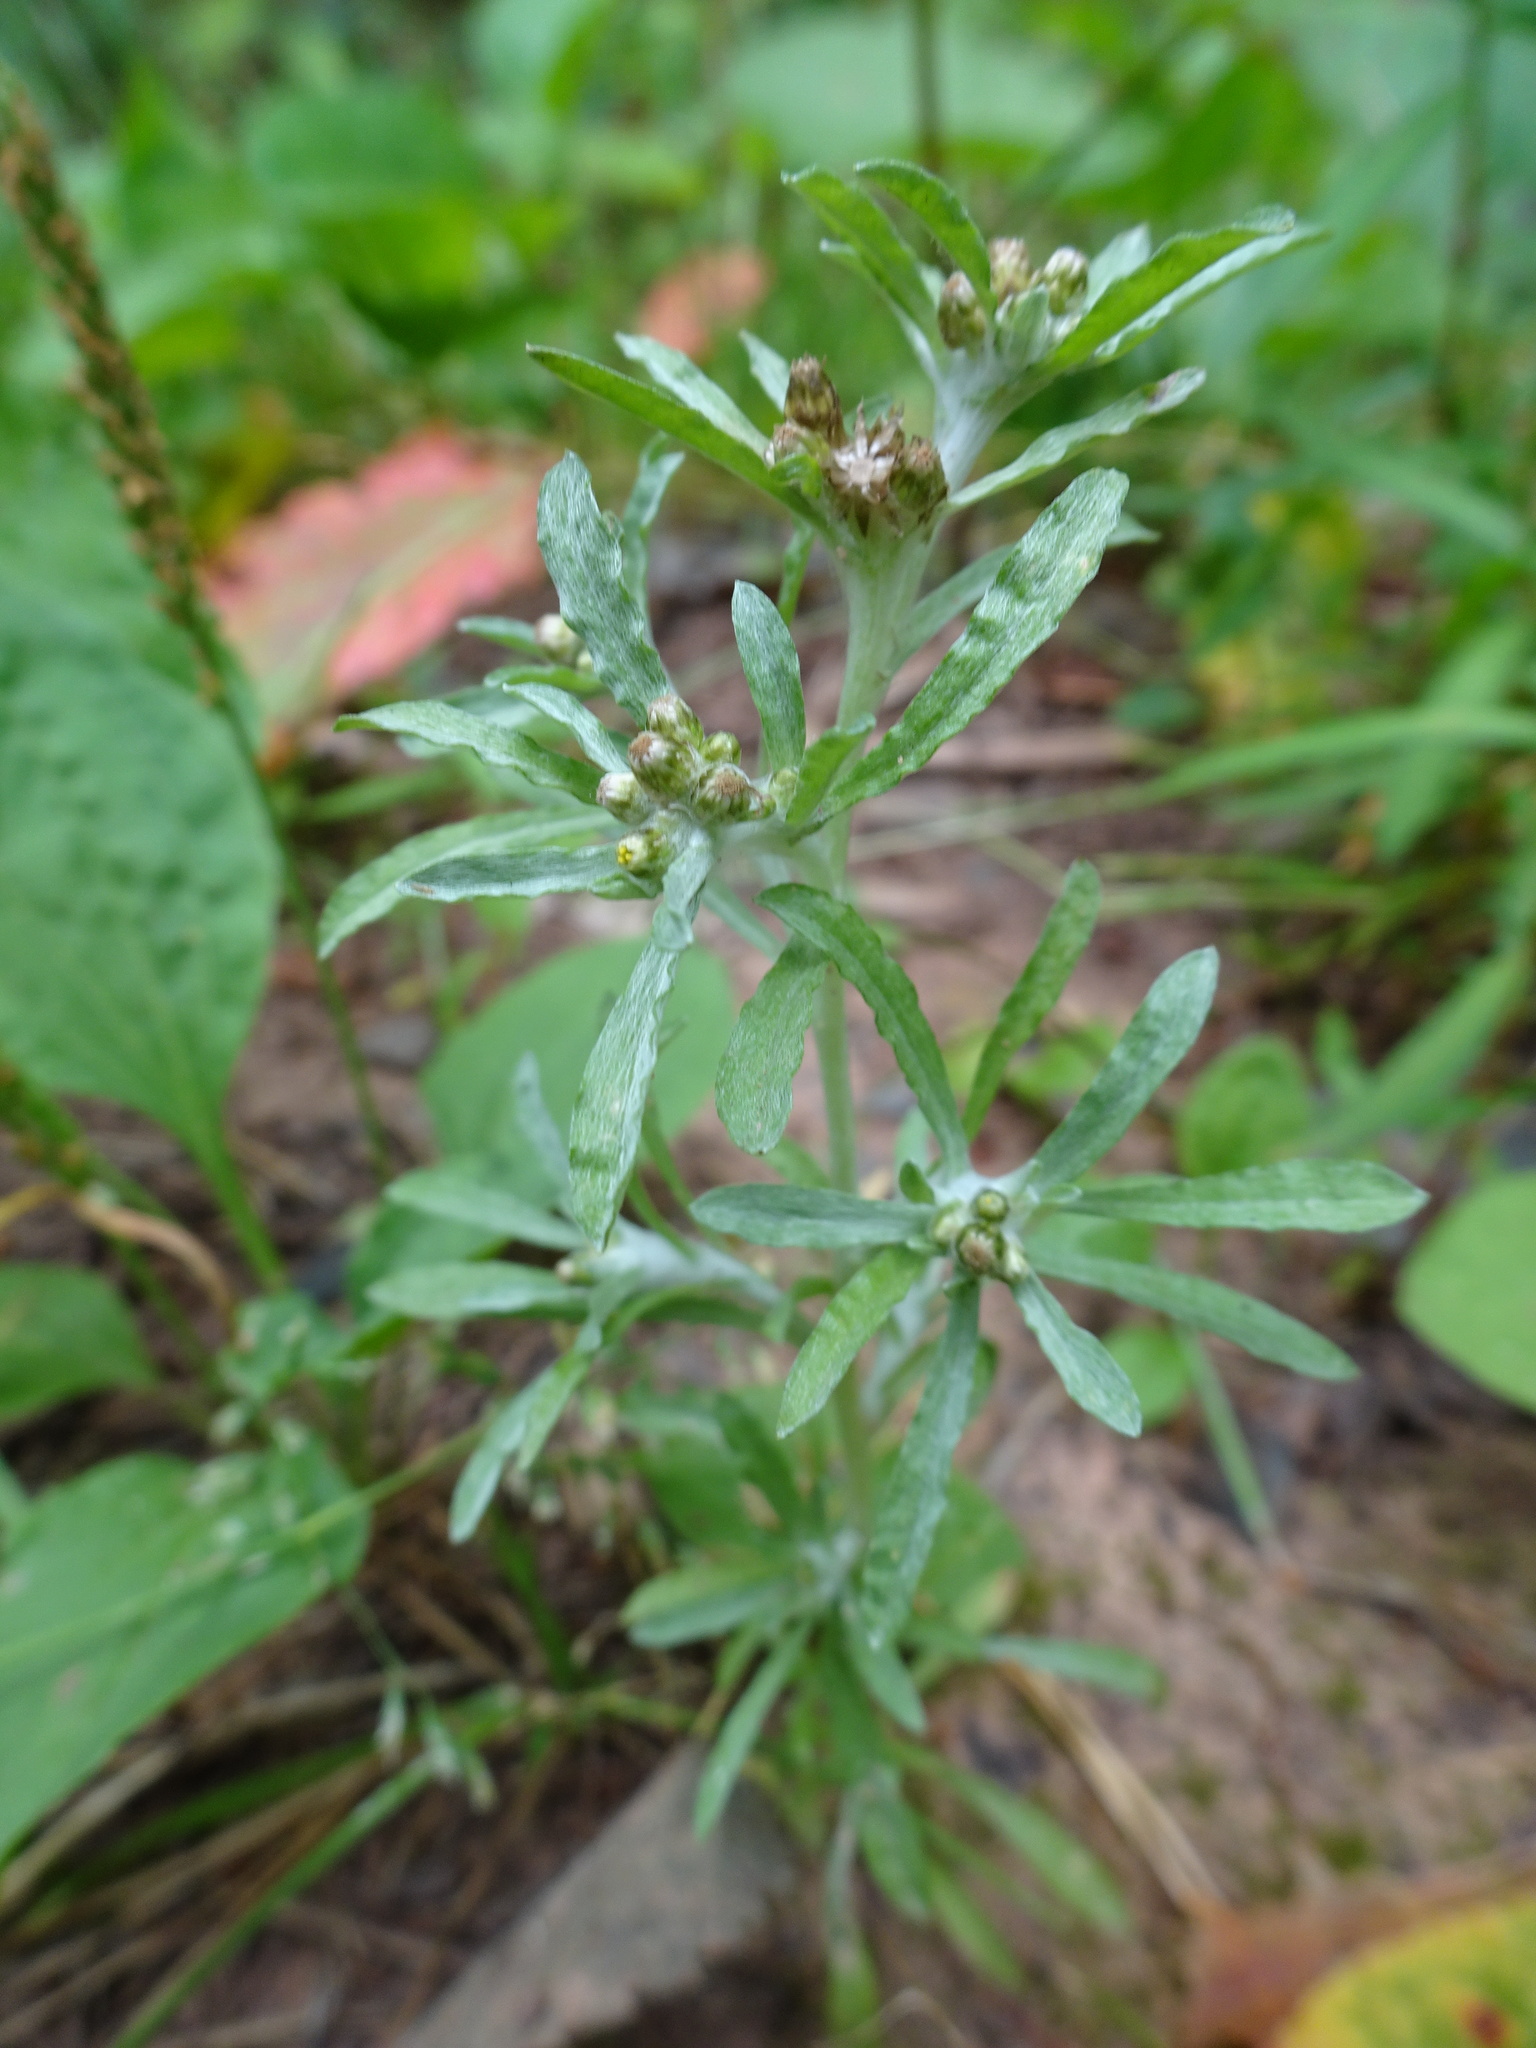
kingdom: Plantae
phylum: Tracheophyta
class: Magnoliopsida
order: Asterales
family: Asteraceae
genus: Gnaphalium
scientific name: Gnaphalium uliginosum
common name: Marsh cudweed
